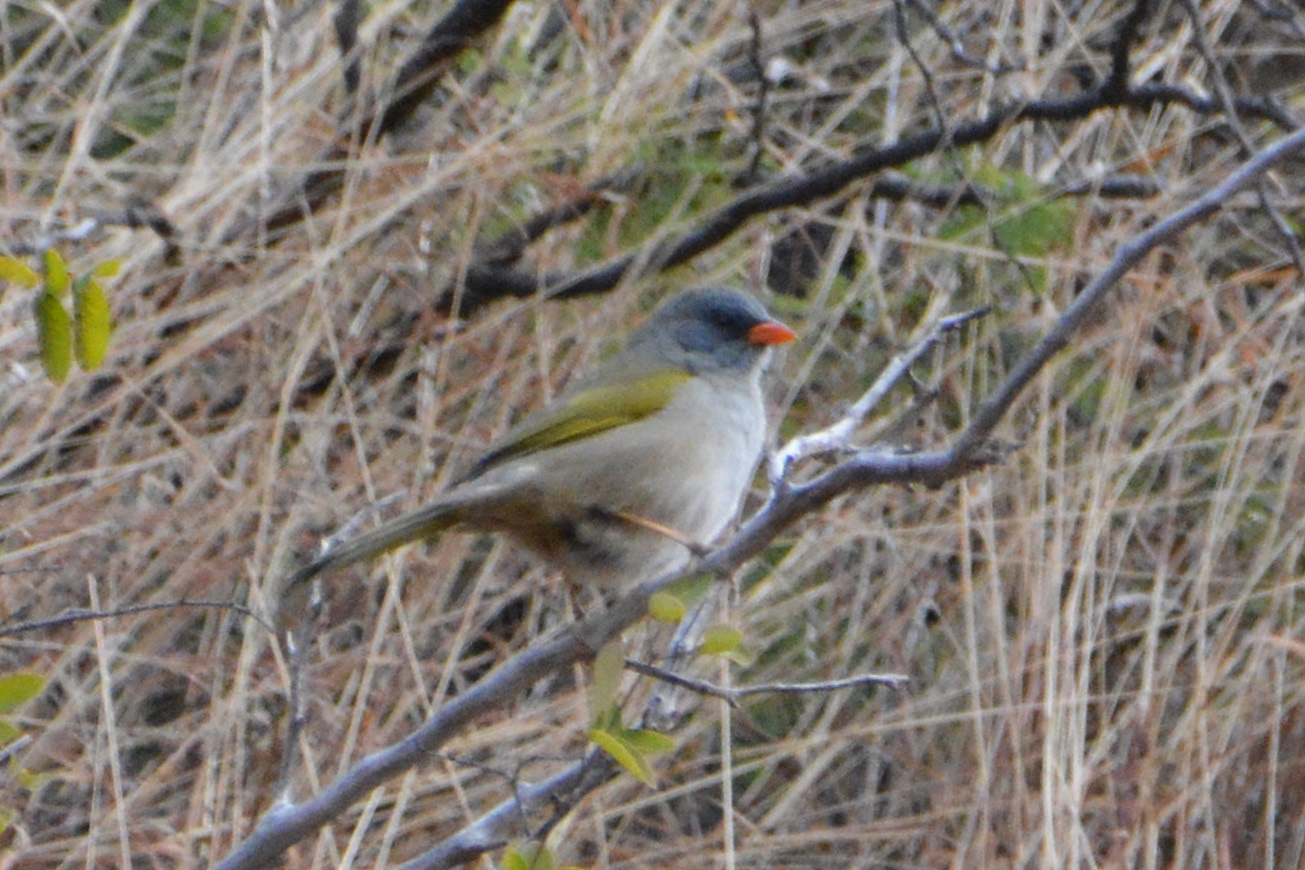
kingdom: Animalia
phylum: Chordata
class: Aves
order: Passeriformes
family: Thraupidae
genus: Embernagra
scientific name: Embernagra platensis
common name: Pampa finch
